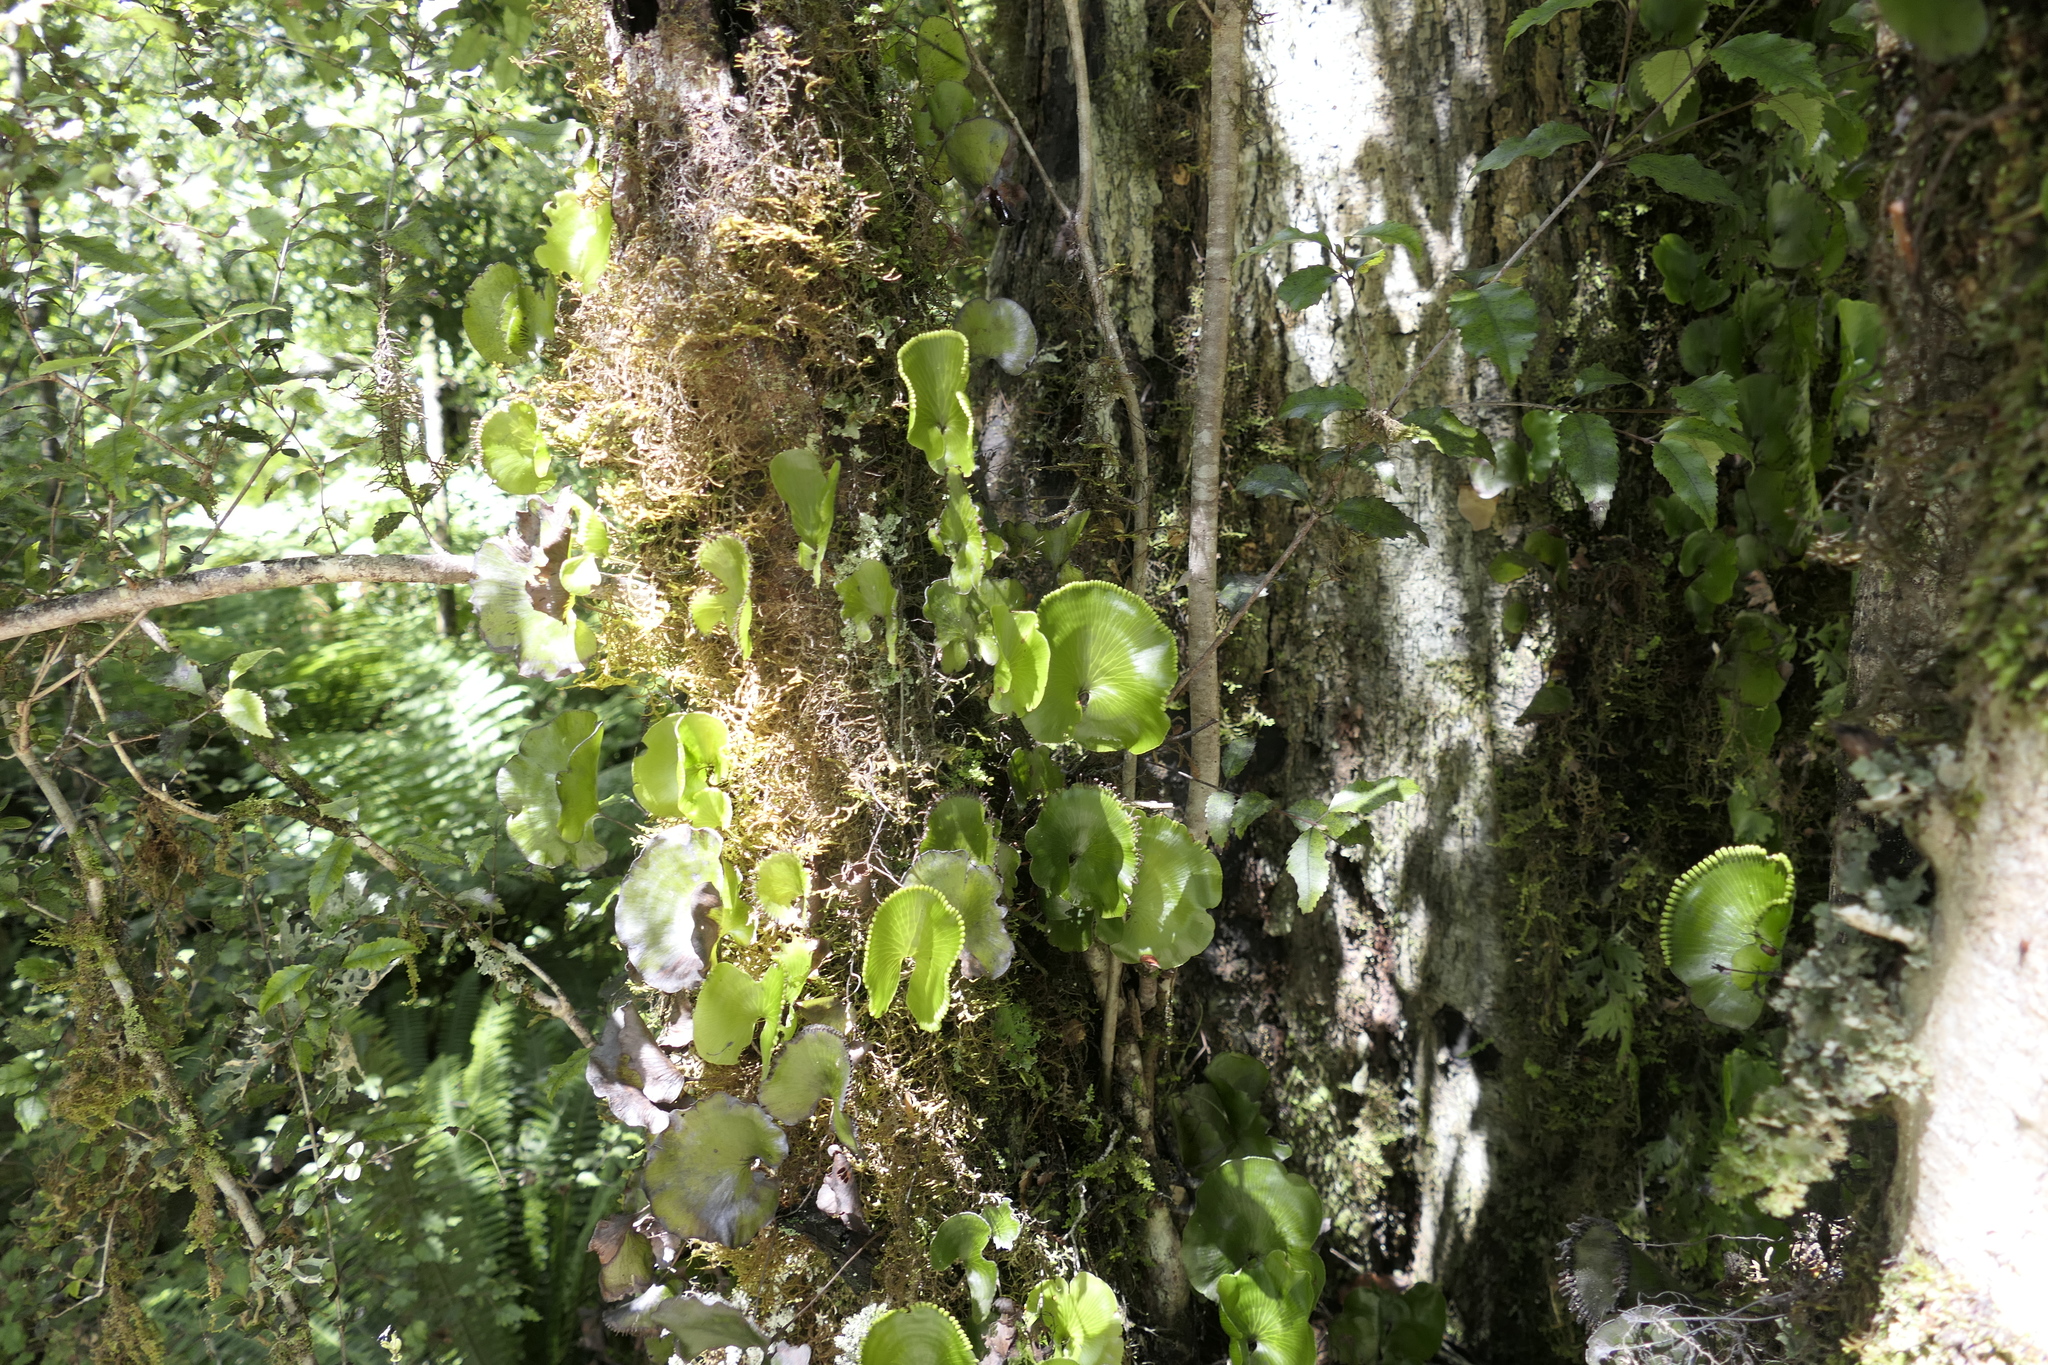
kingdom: Plantae
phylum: Tracheophyta
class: Polypodiopsida
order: Hymenophyllales
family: Hymenophyllaceae
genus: Hymenophyllum
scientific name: Hymenophyllum nephrophyllum
